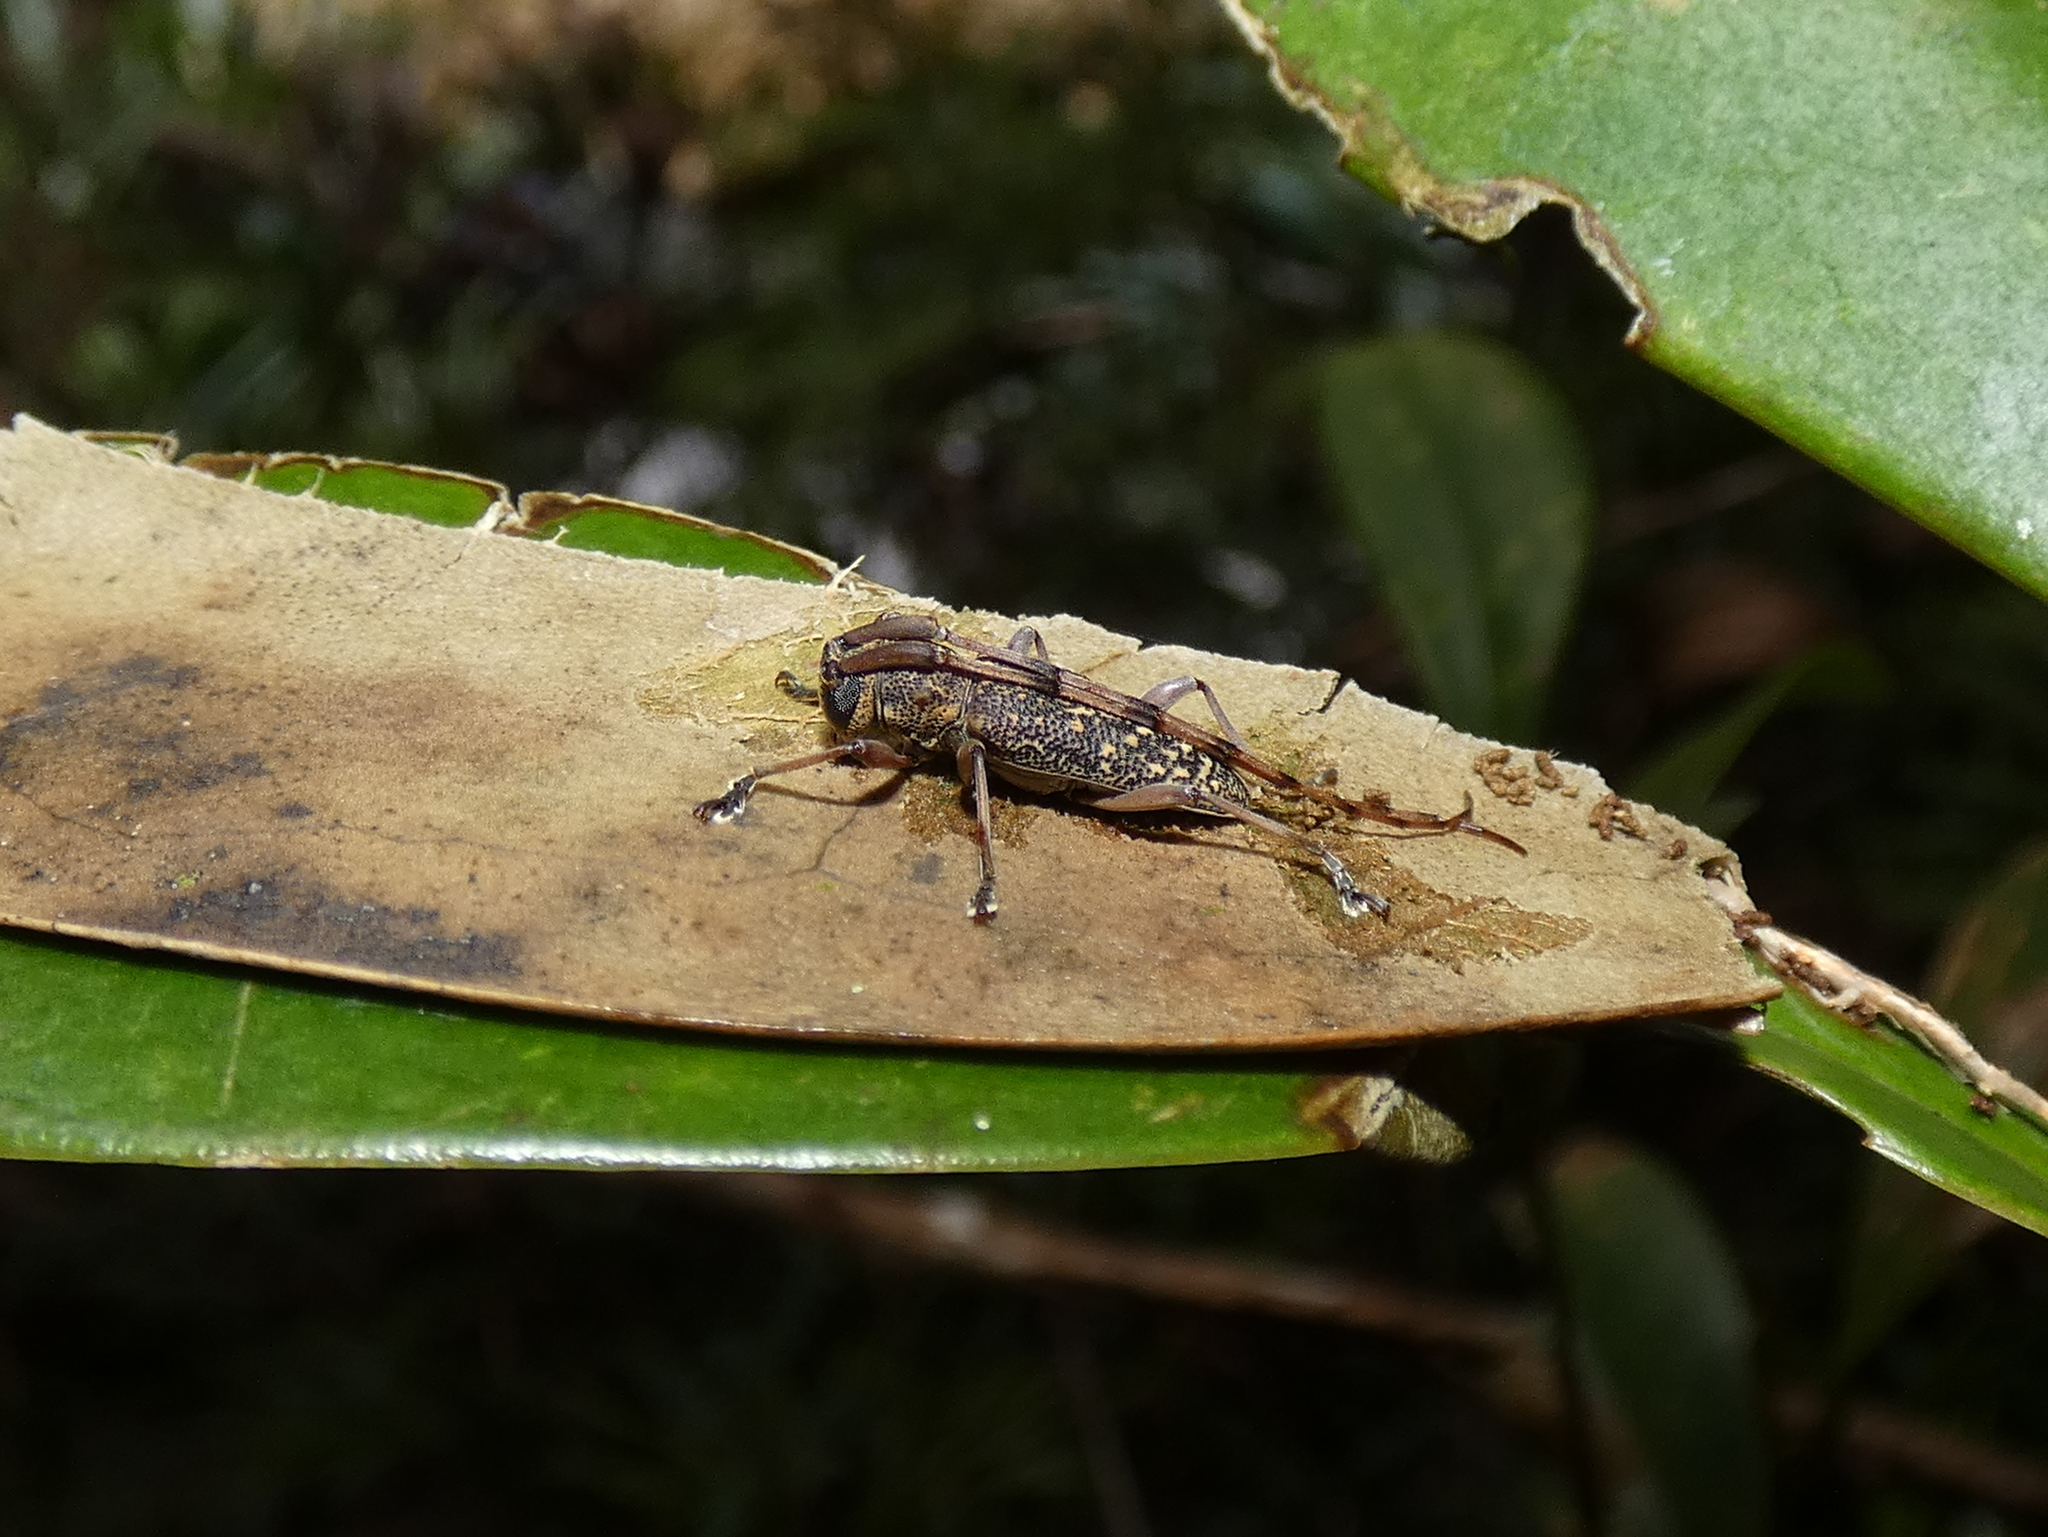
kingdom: Animalia
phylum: Arthropoda
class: Insecta
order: Coleoptera
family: Cerambycidae
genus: Granulorsidis
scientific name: Granulorsidis
